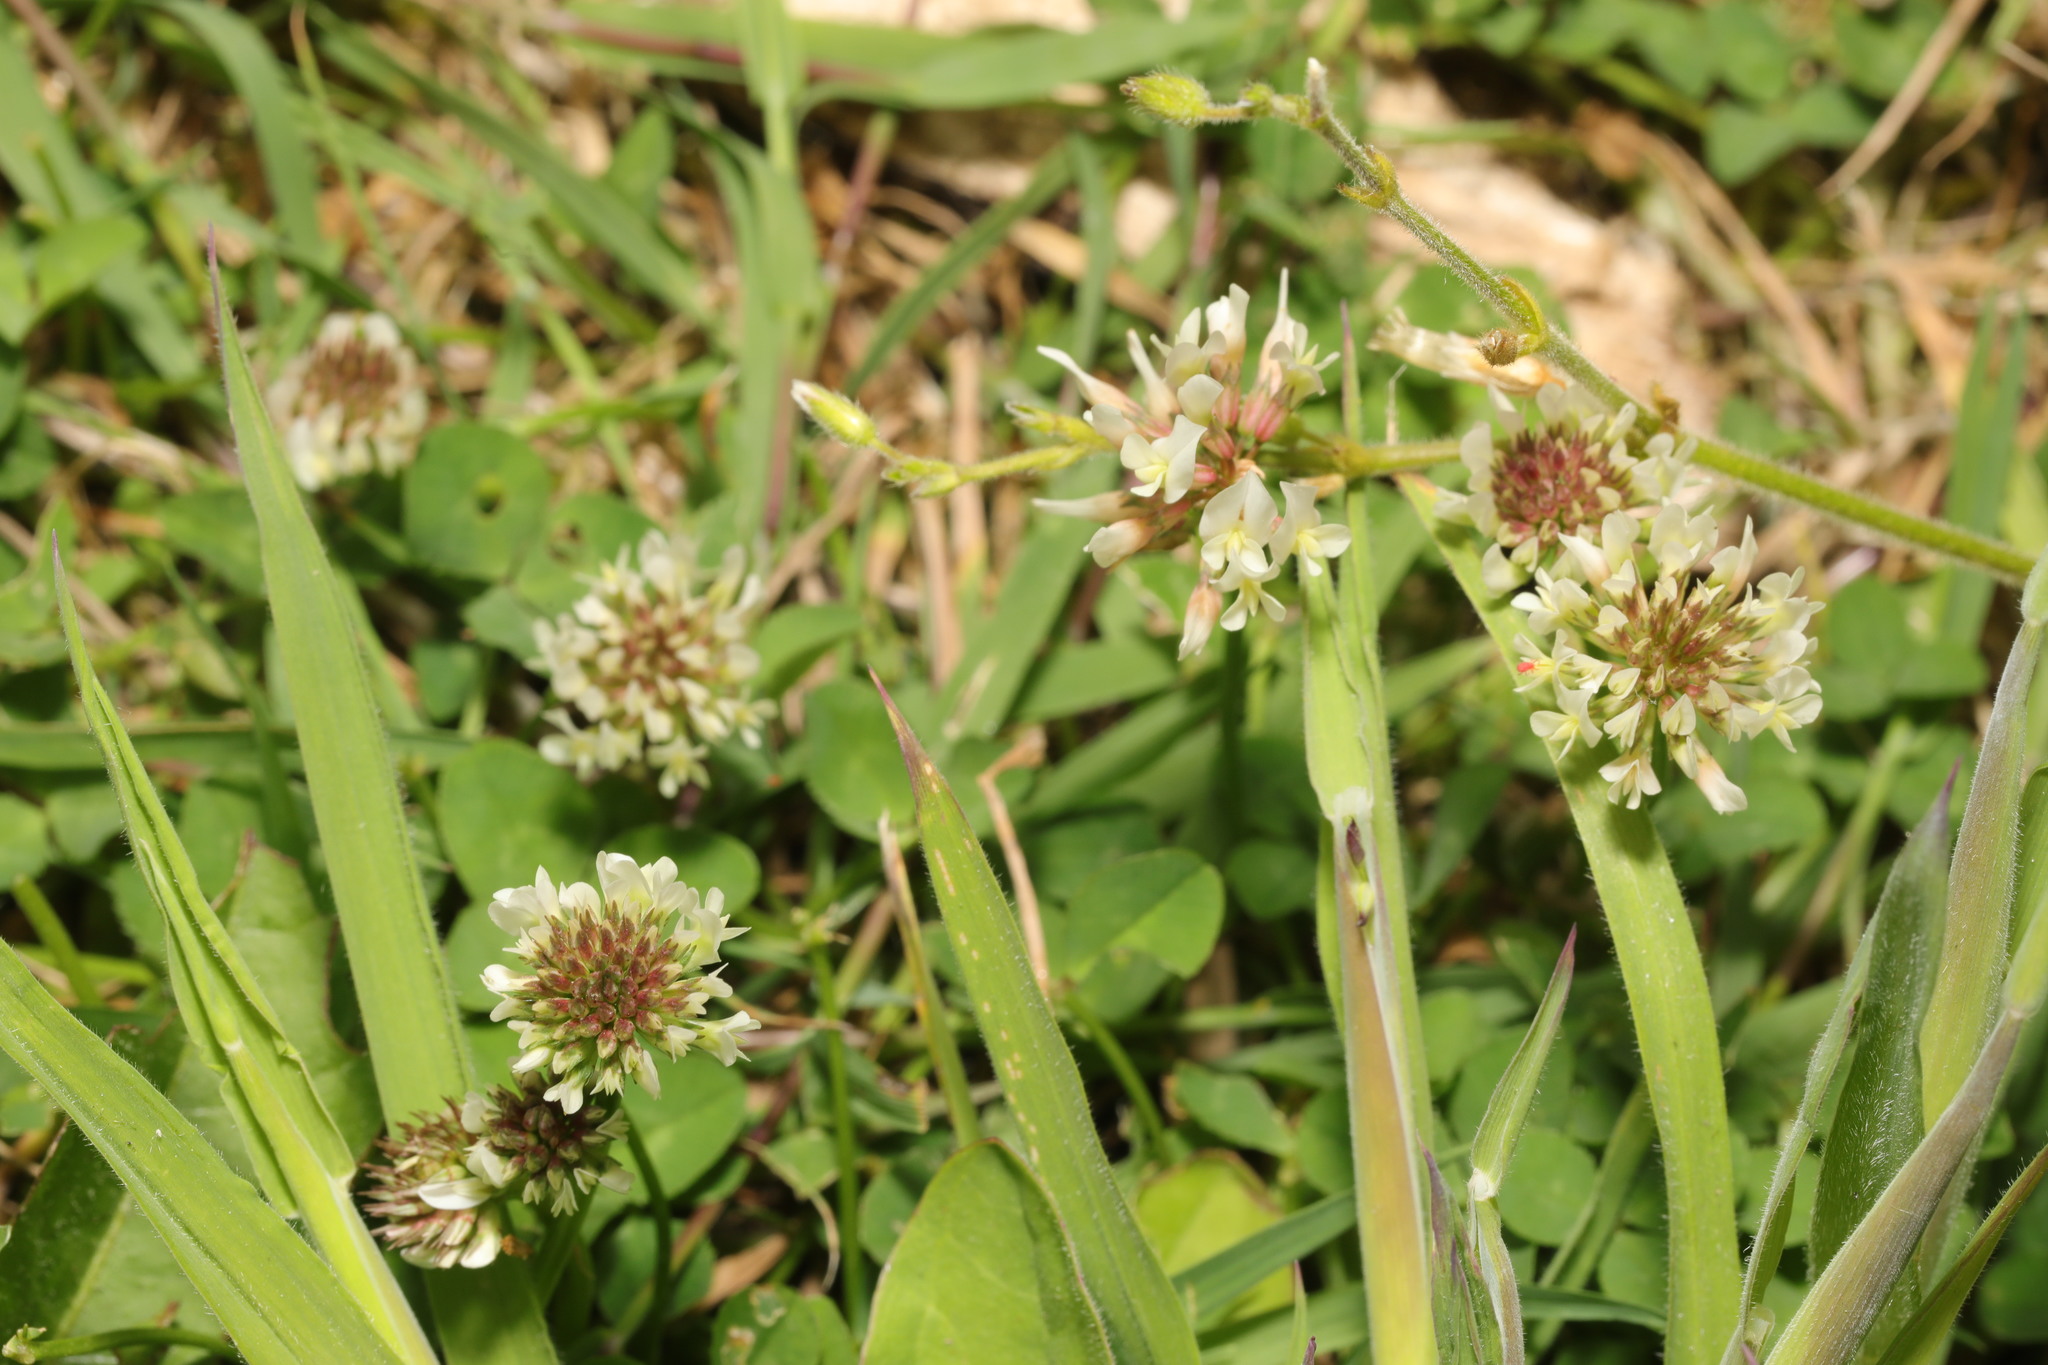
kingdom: Plantae
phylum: Tracheophyta
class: Magnoliopsida
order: Fabales
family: Fabaceae
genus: Trifolium
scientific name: Trifolium repens
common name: White clover
